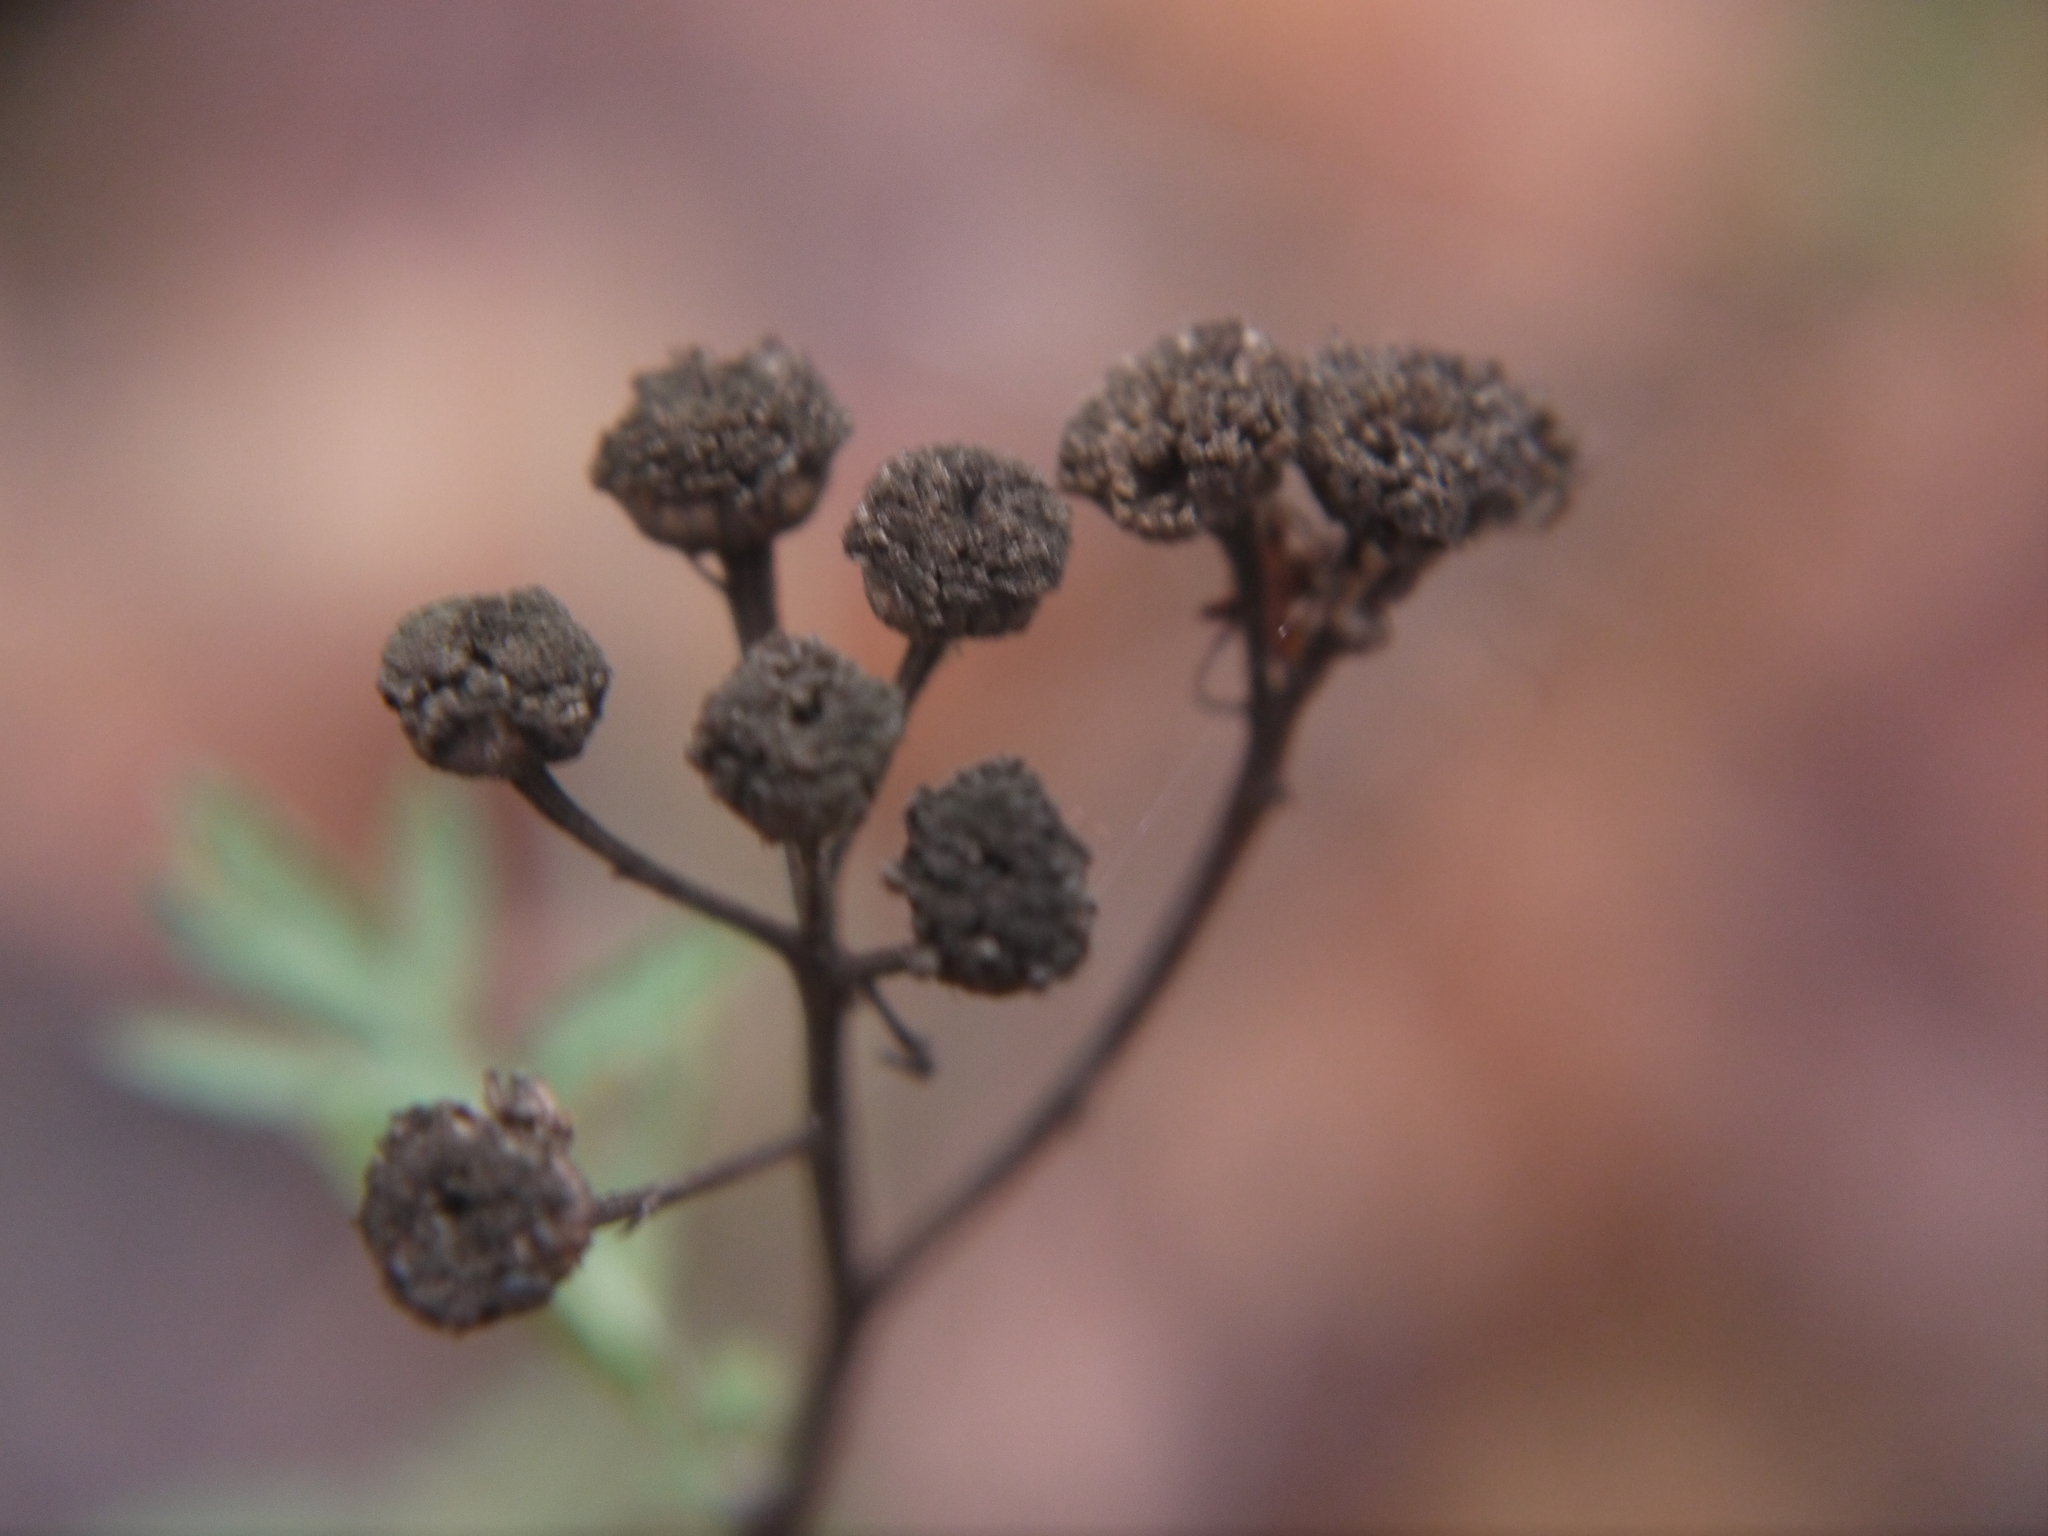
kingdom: Plantae
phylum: Tracheophyta
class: Magnoliopsida
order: Asterales
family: Asteraceae
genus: Tanacetum
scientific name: Tanacetum vulgare
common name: Common tansy
